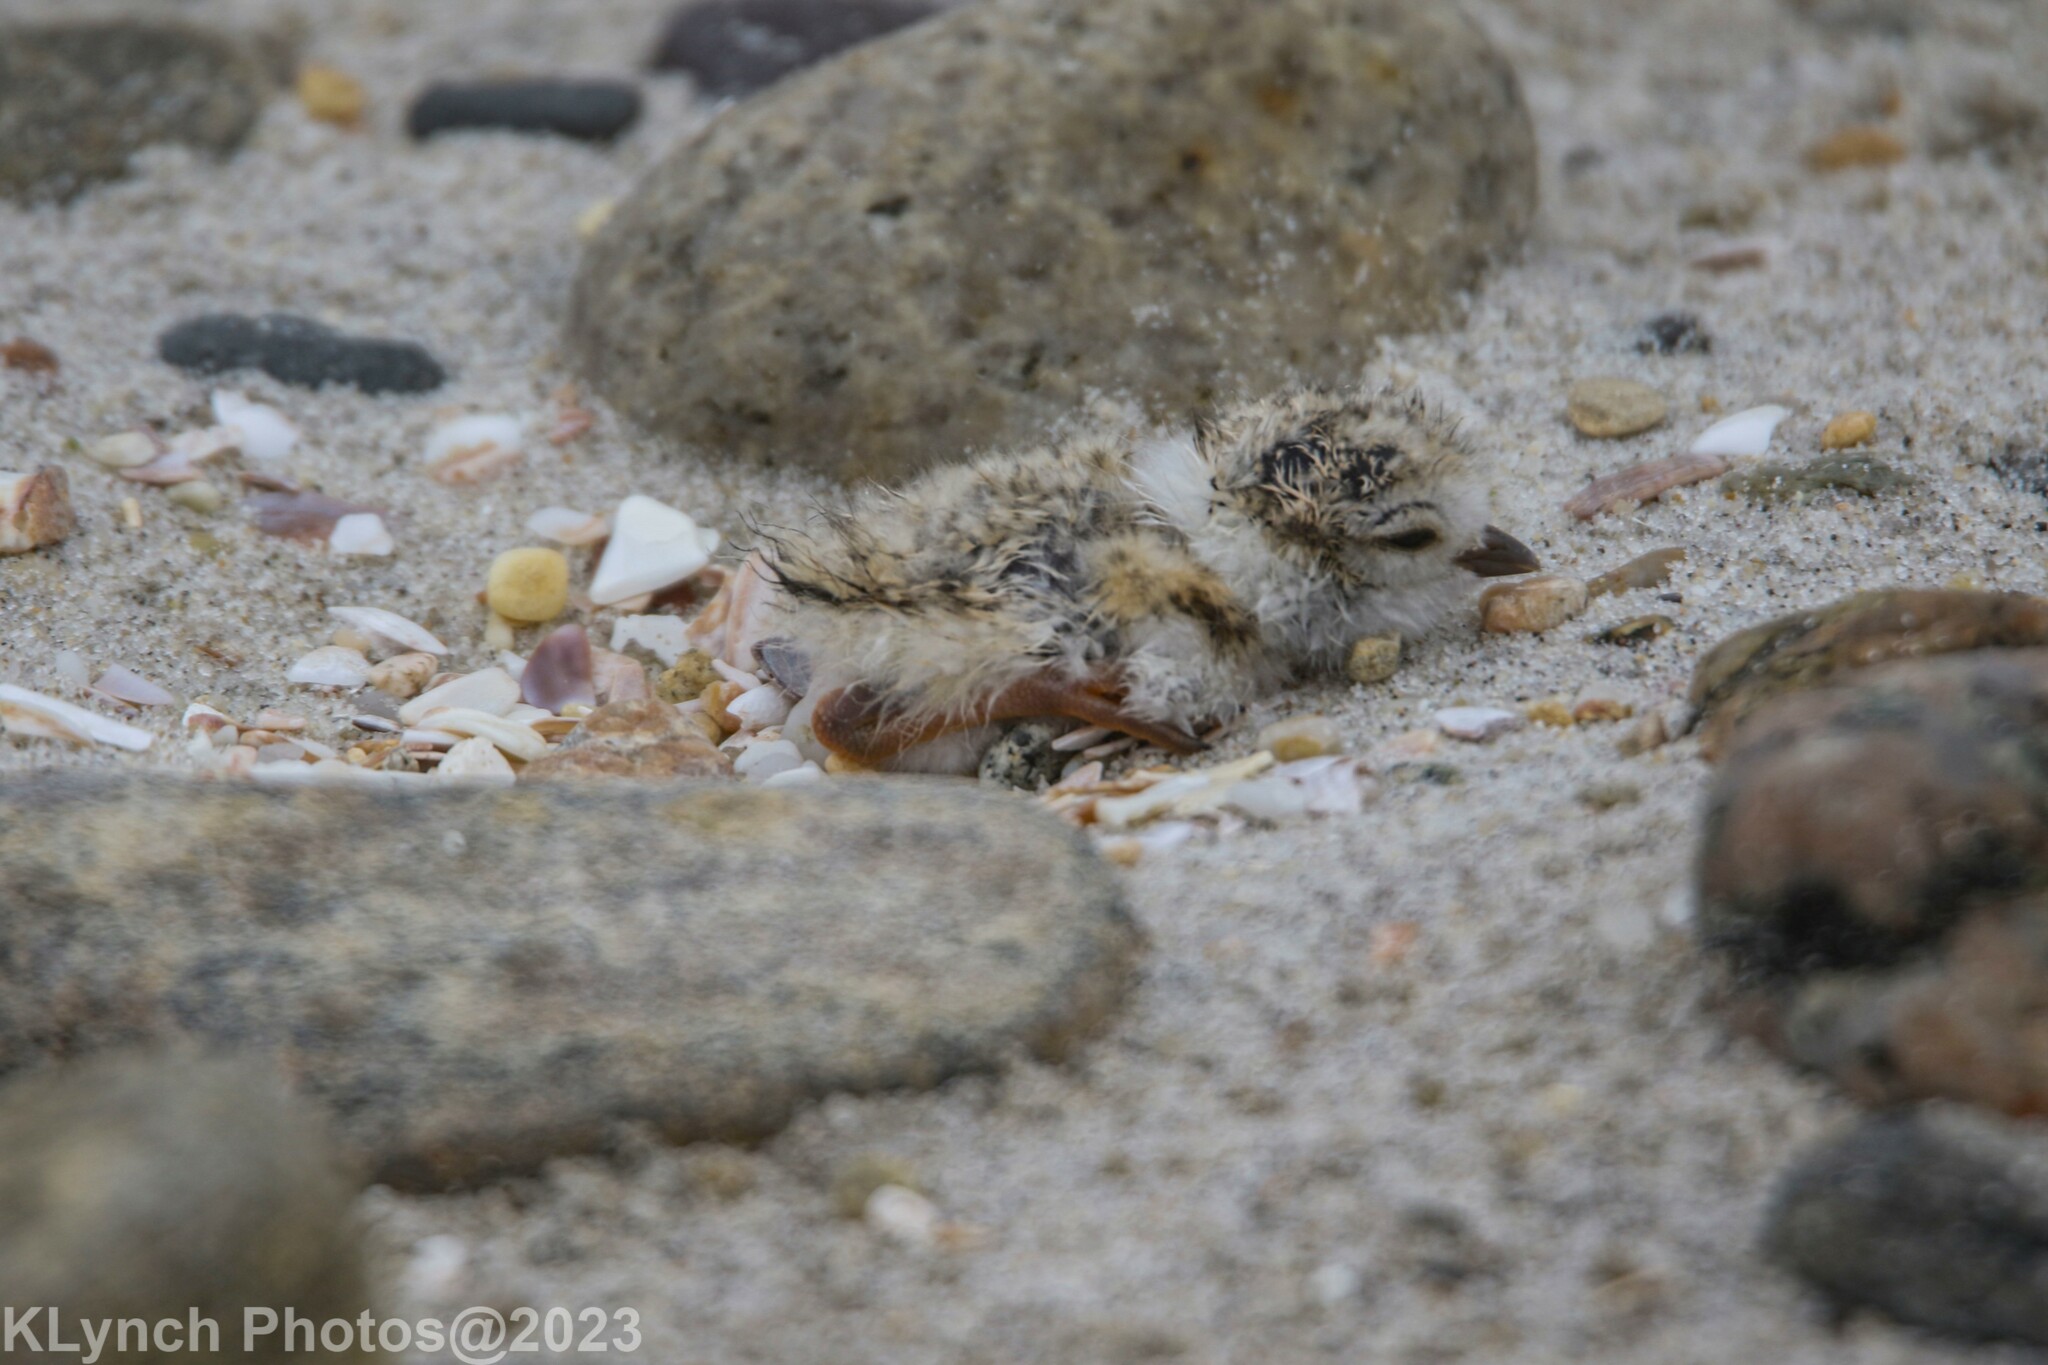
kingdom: Animalia
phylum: Chordata
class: Aves
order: Charadriiformes
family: Charadriidae
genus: Charadrius
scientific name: Charadrius melodus
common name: Piping plover
